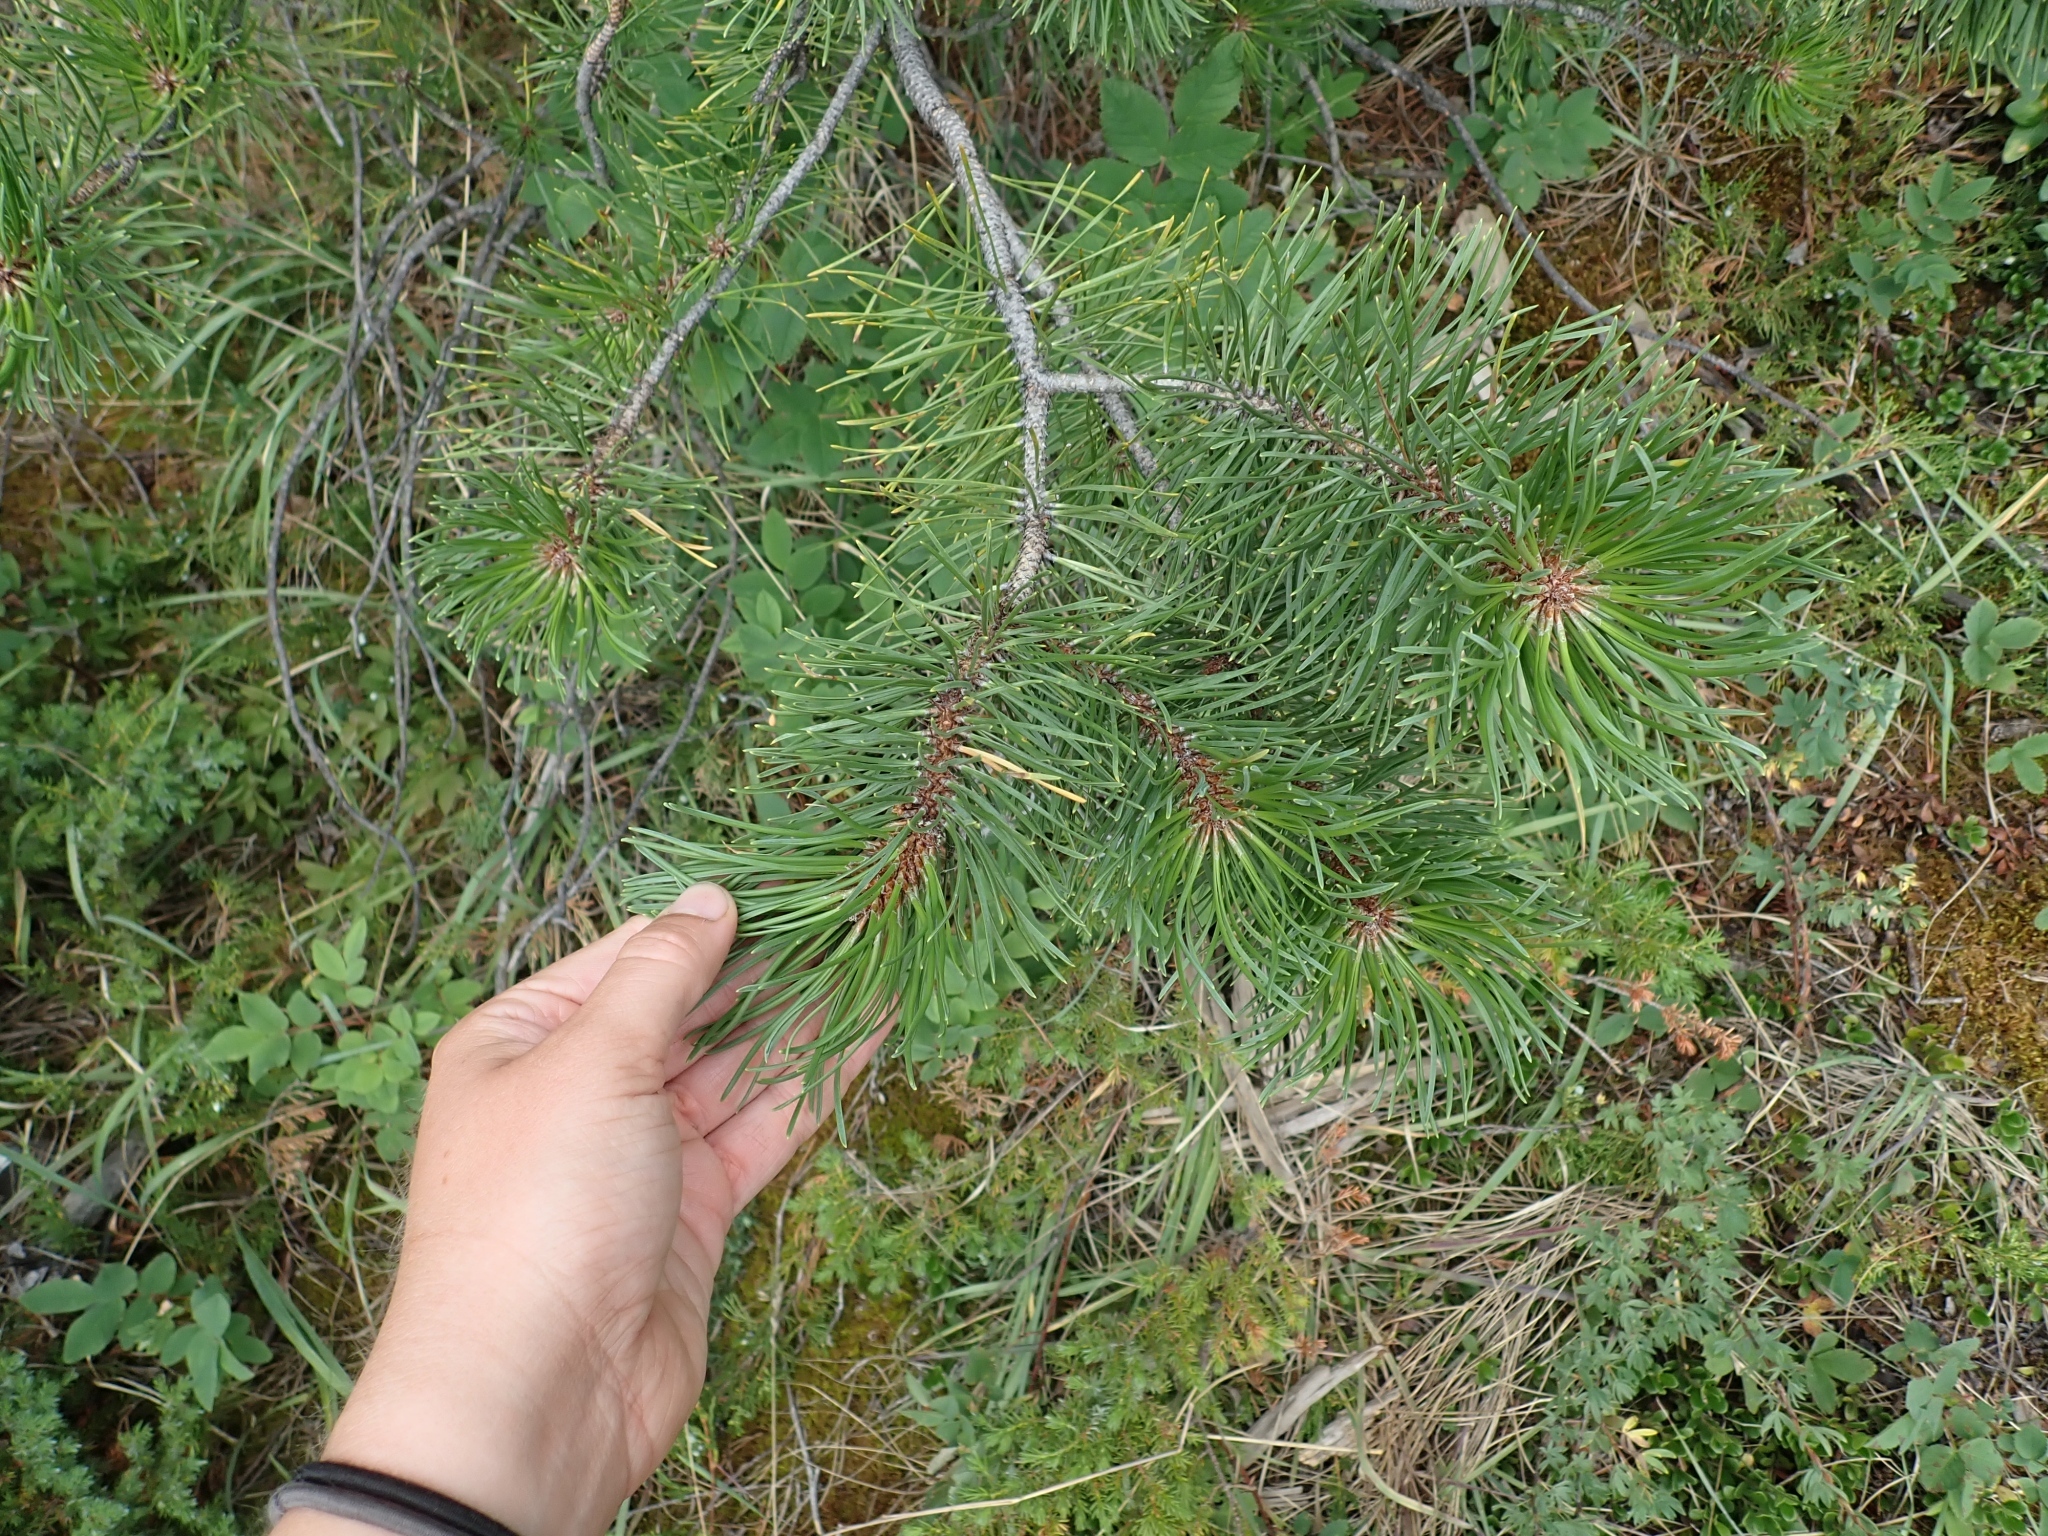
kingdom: Plantae
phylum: Tracheophyta
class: Pinopsida
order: Pinales
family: Pinaceae
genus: Pinus
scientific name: Pinus contorta
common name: Lodgepole pine
